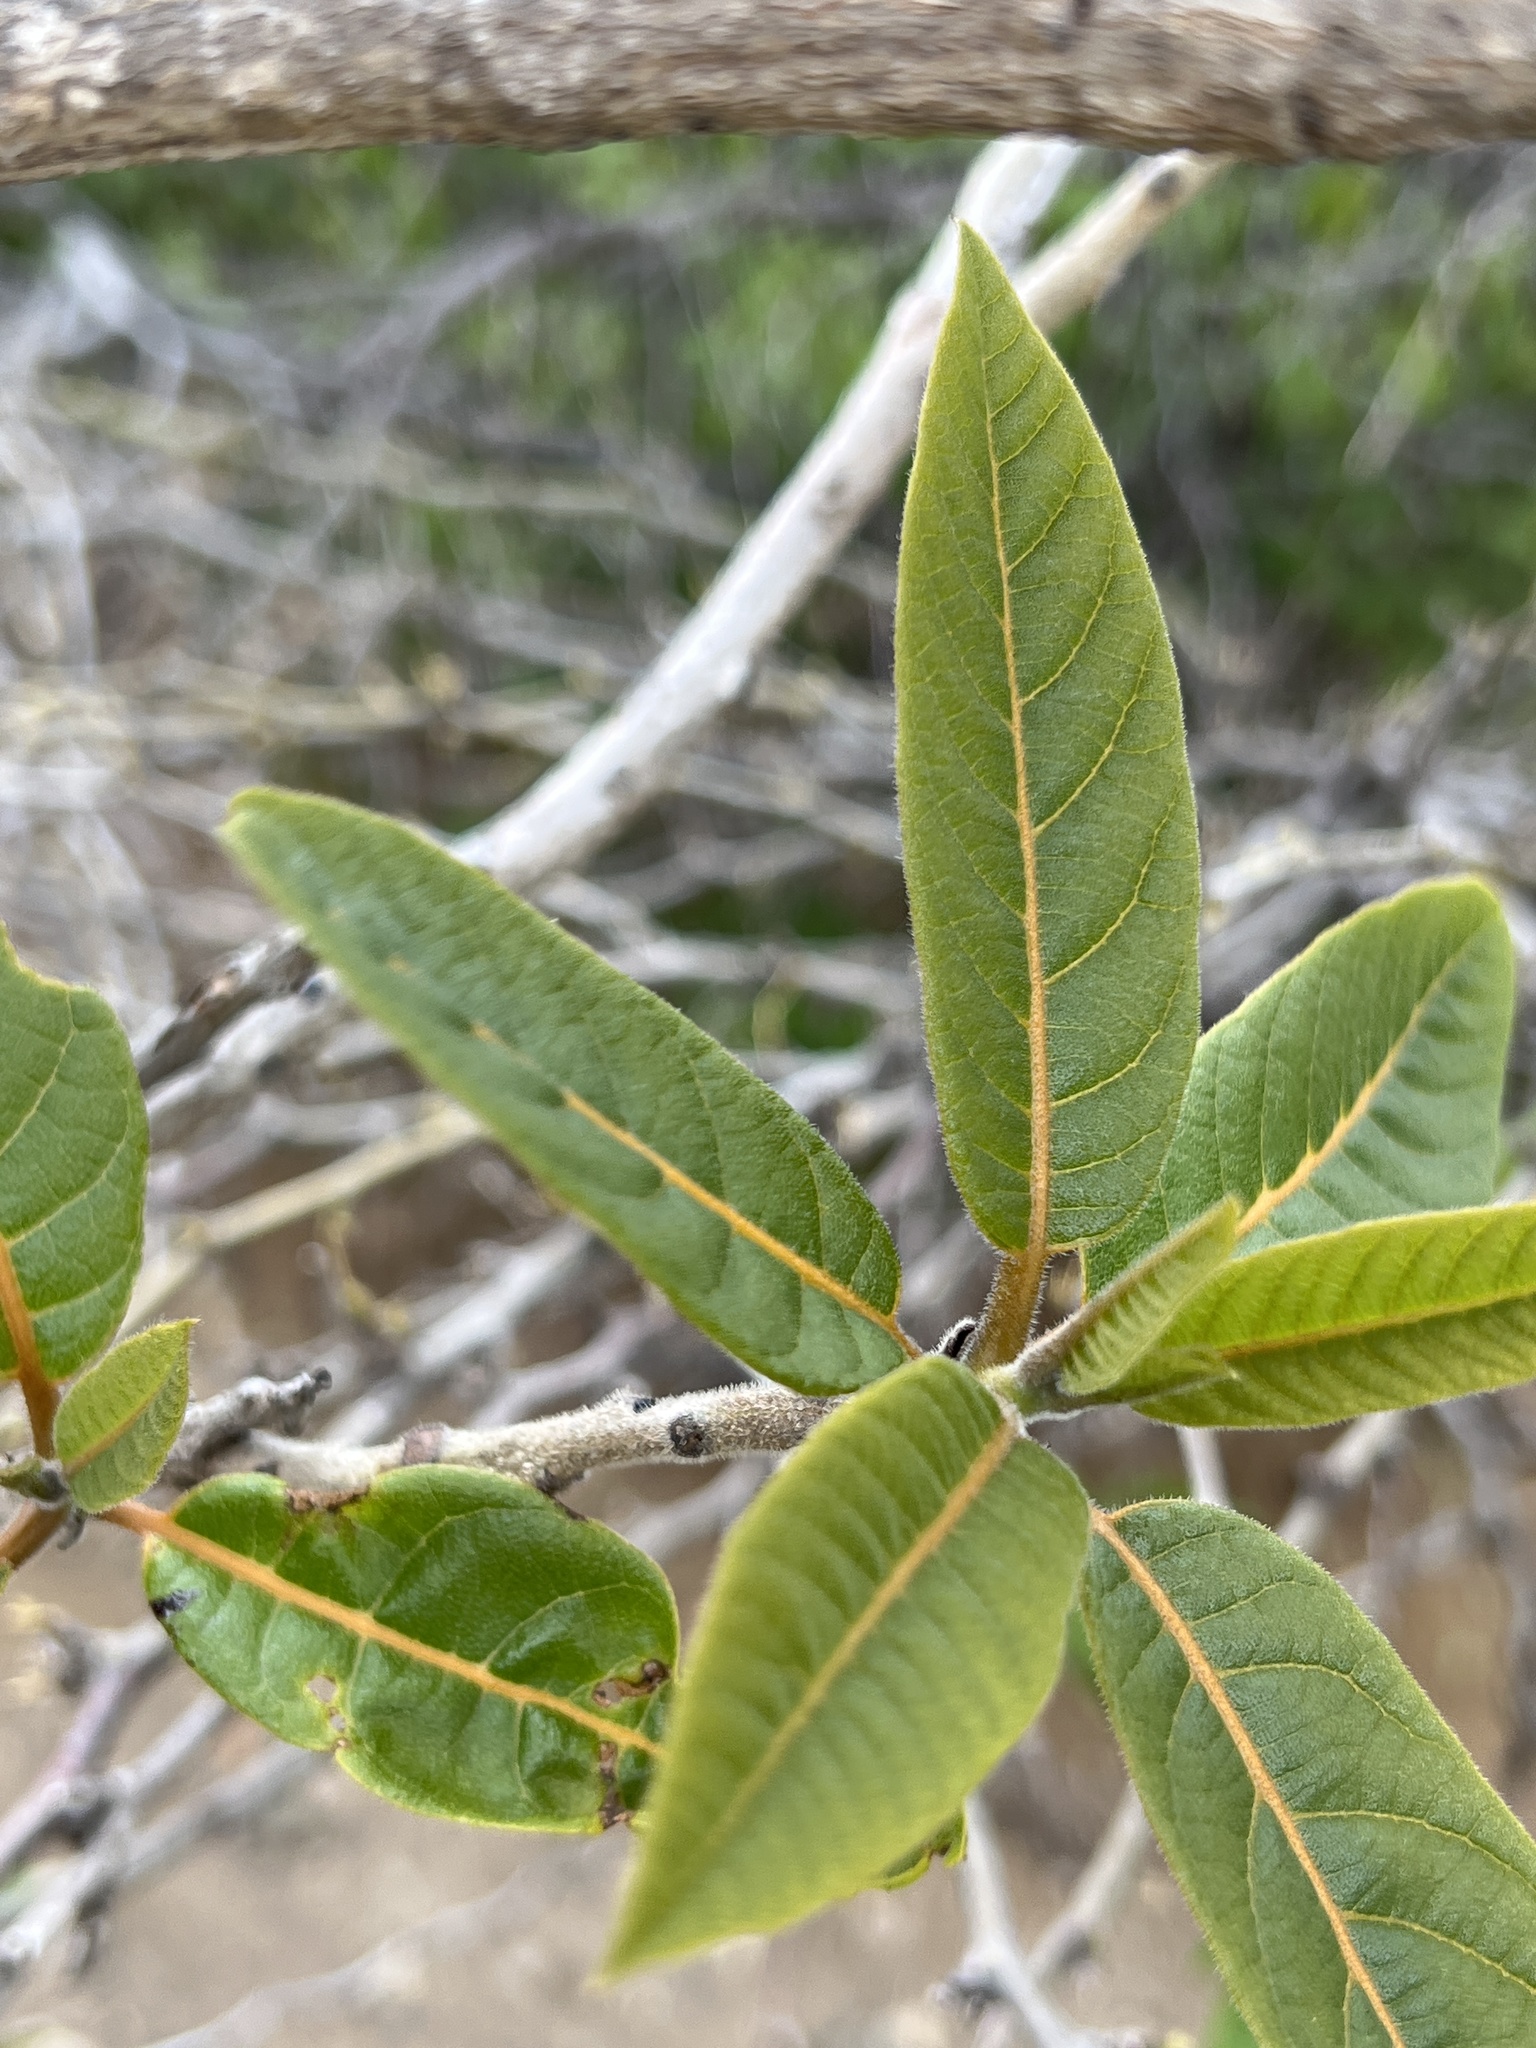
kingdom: Plantae
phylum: Tracheophyta
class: Magnoliopsida
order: Boraginales
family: Cordiaceae
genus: Cordia
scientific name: Cordia rickseckeri
